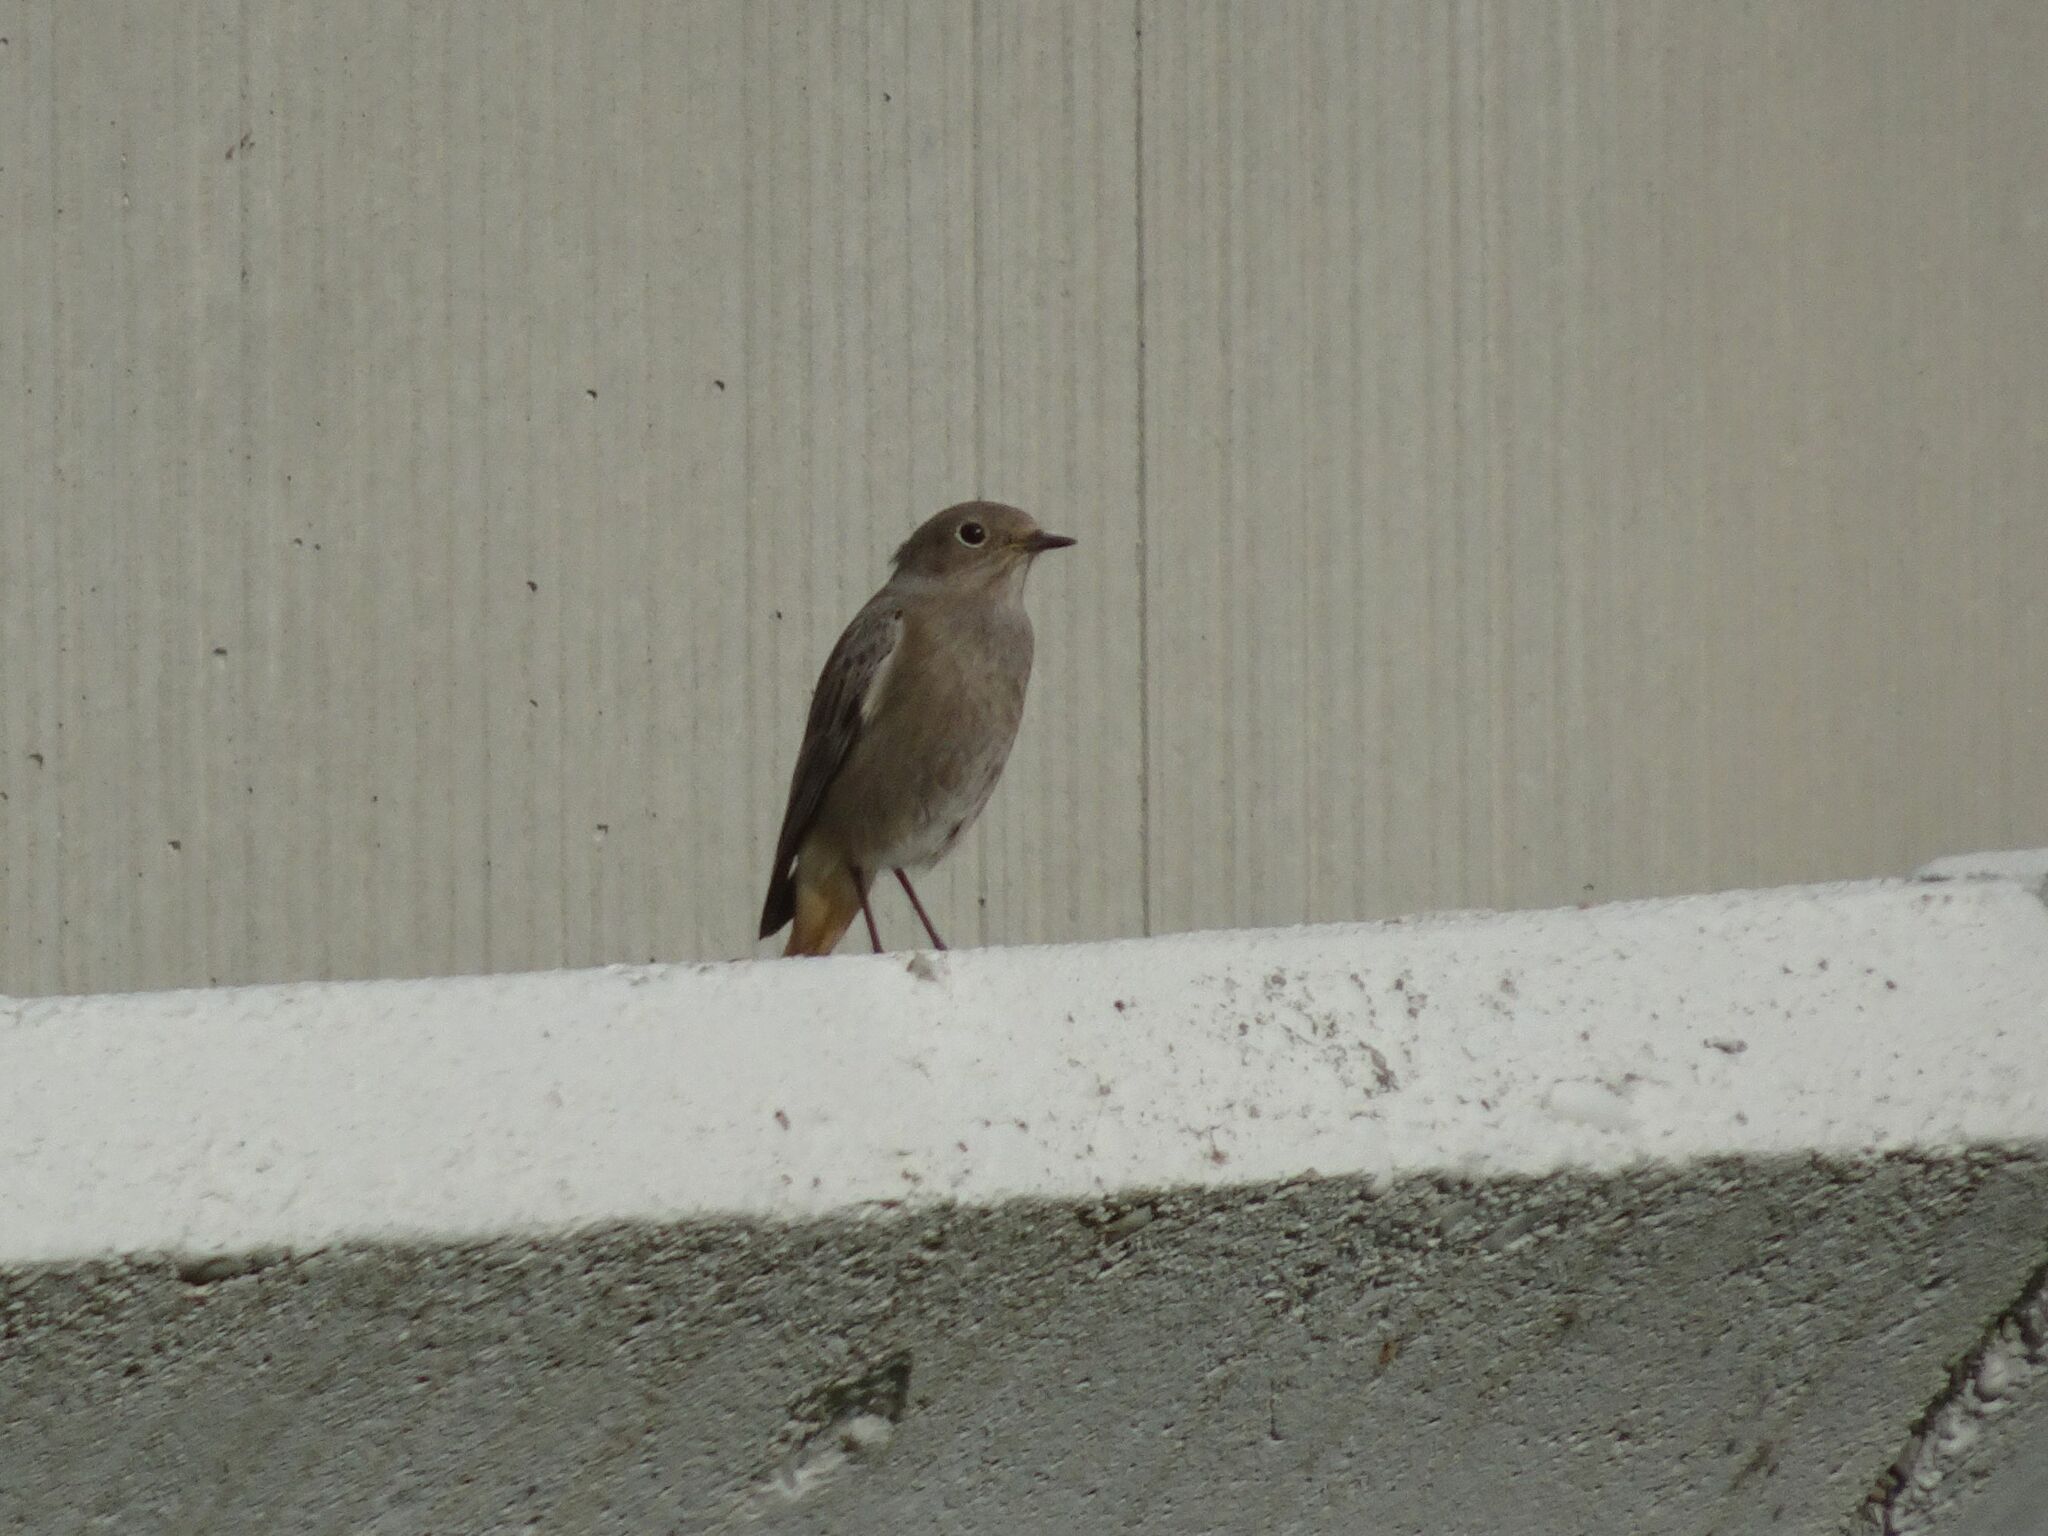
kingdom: Animalia
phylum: Chordata
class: Aves
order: Passeriformes
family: Muscicapidae
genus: Phoenicurus
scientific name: Phoenicurus ochruros
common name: Black redstart
